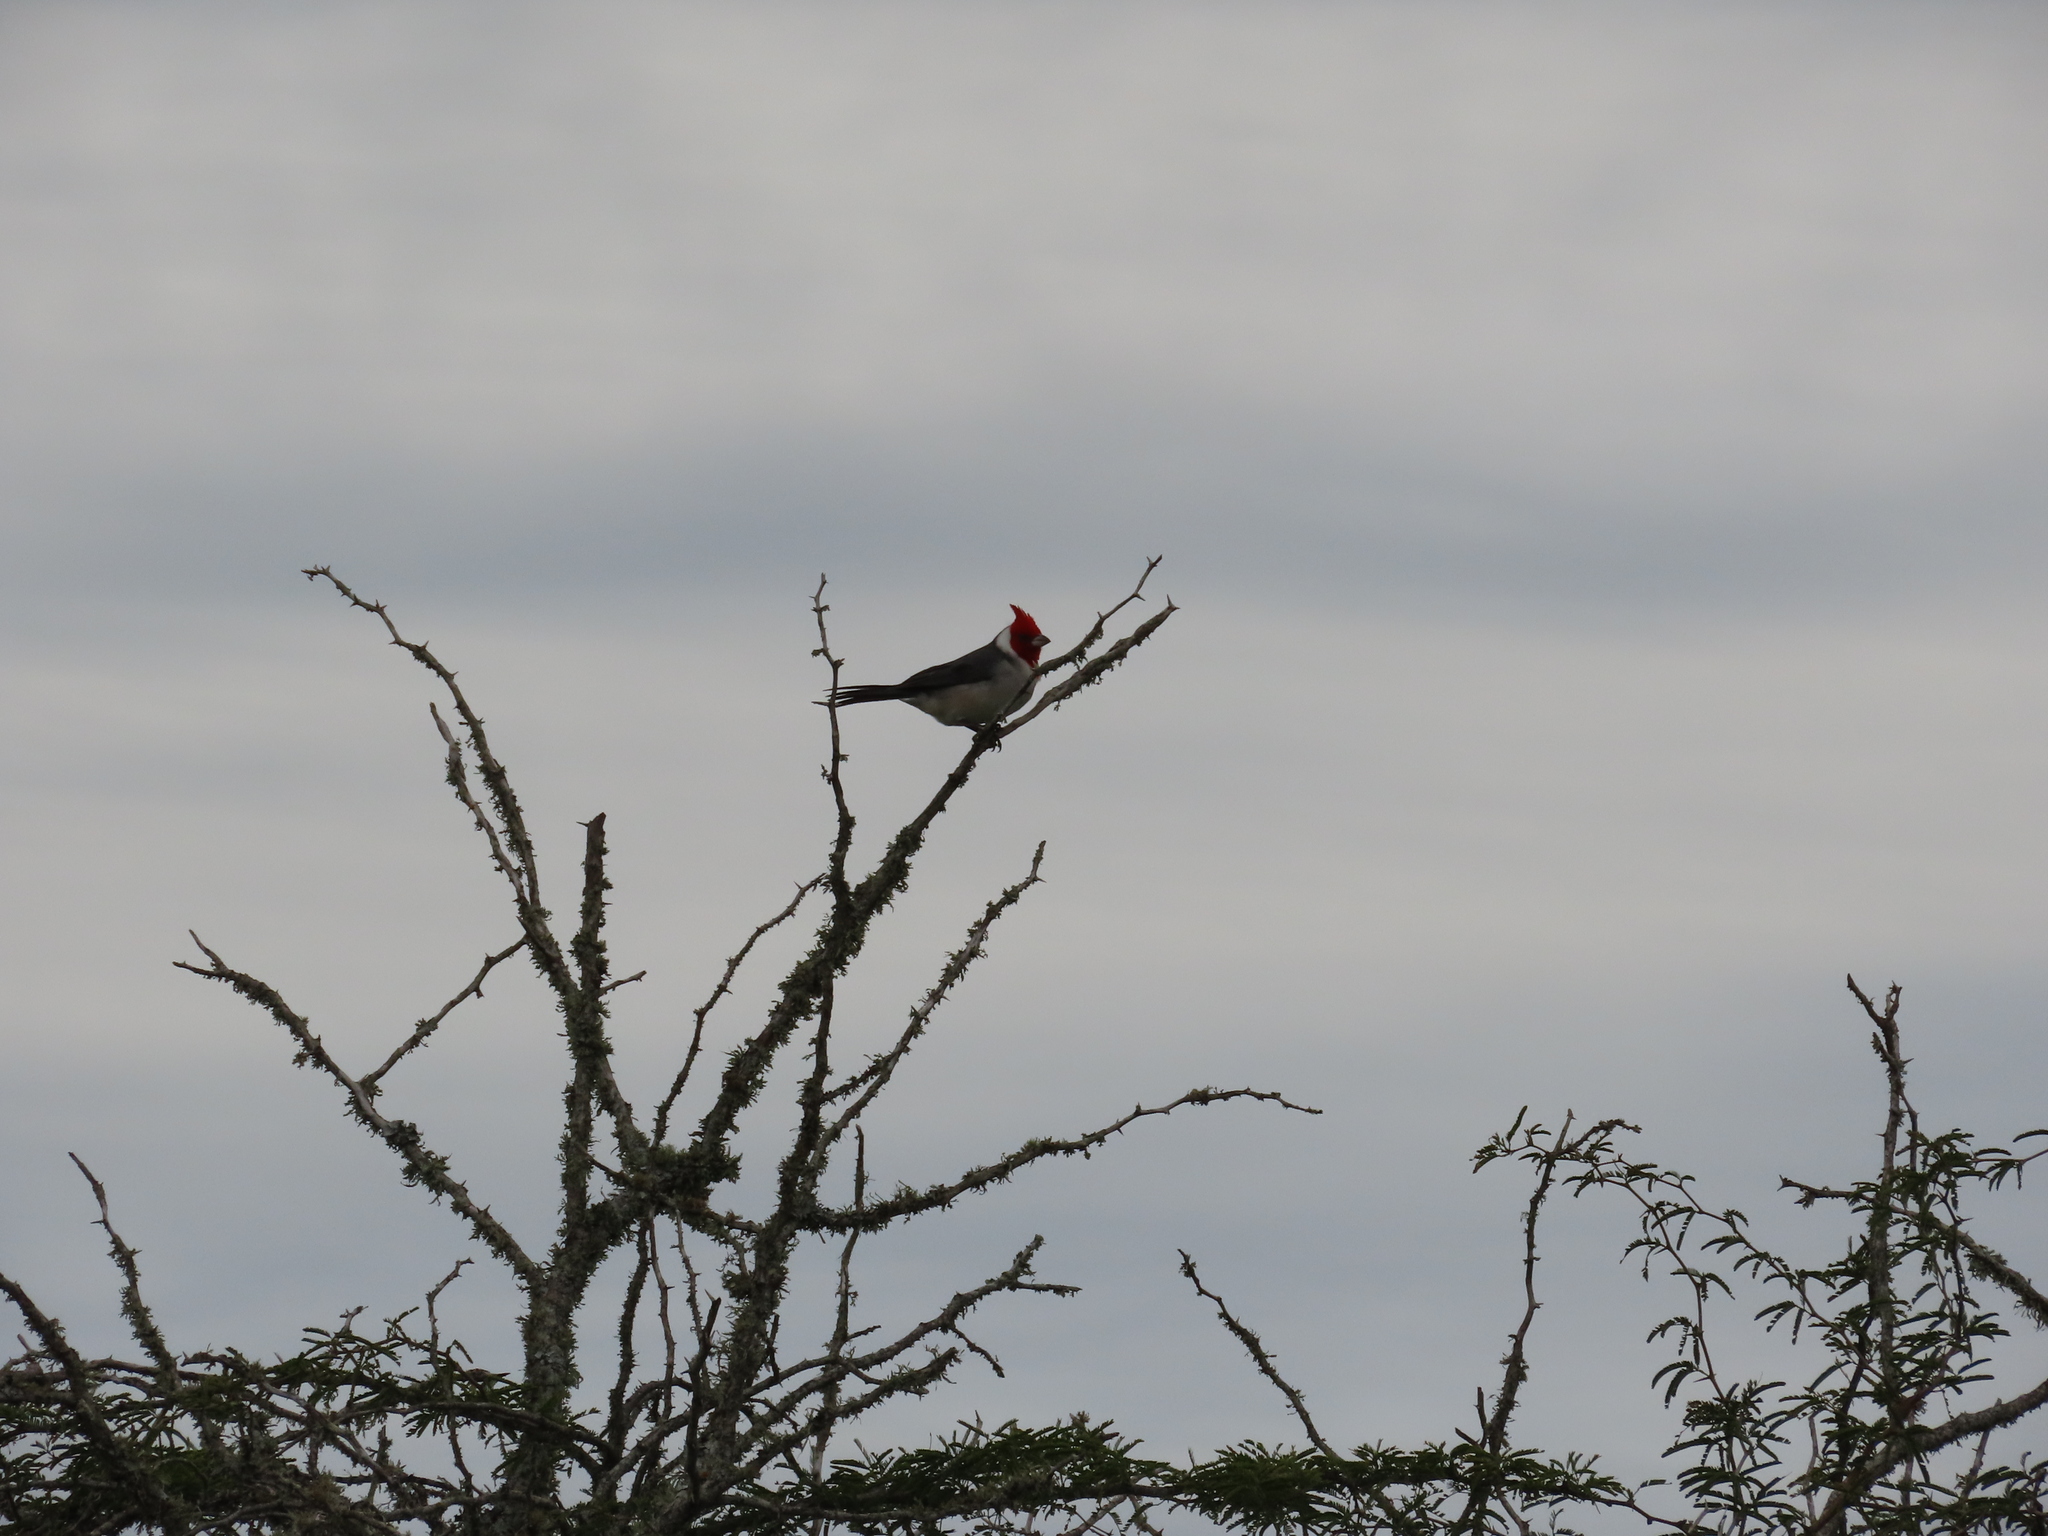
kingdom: Animalia
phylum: Chordata
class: Aves
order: Passeriformes
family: Thraupidae
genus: Paroaria
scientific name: Paroaria coronata
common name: Red-crested cardinal
